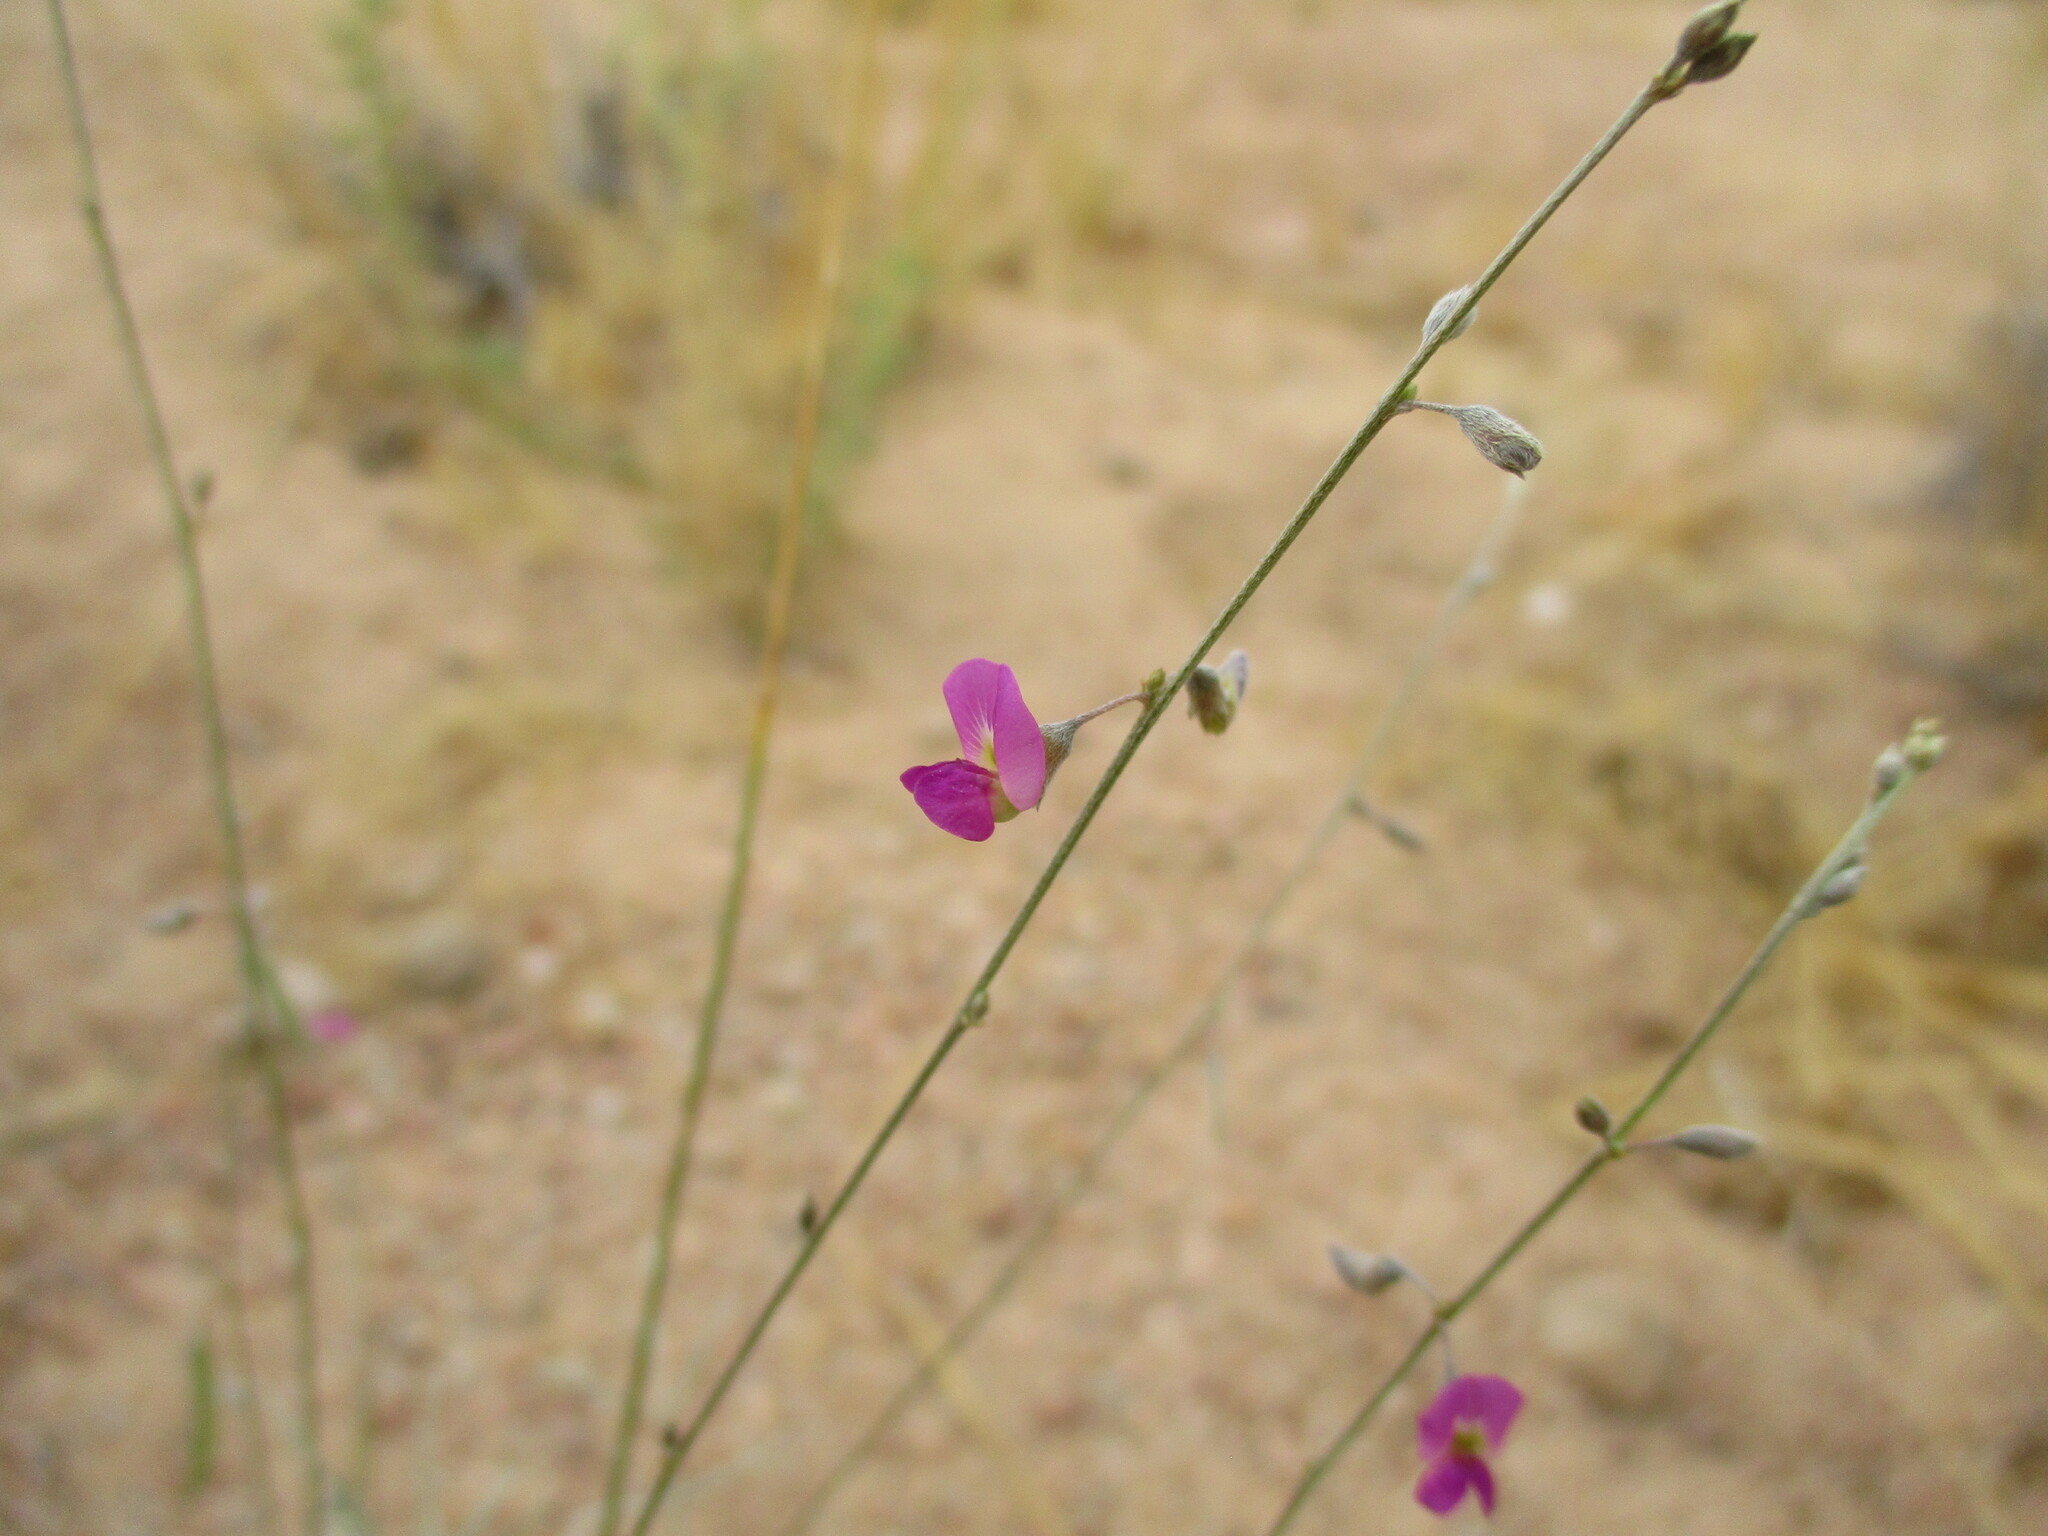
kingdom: Plantae
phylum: Tracheophyta
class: Magnoliopsida
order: Fabales
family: Fabaceae
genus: Tephrosia
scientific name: Tephrosia dregeana
